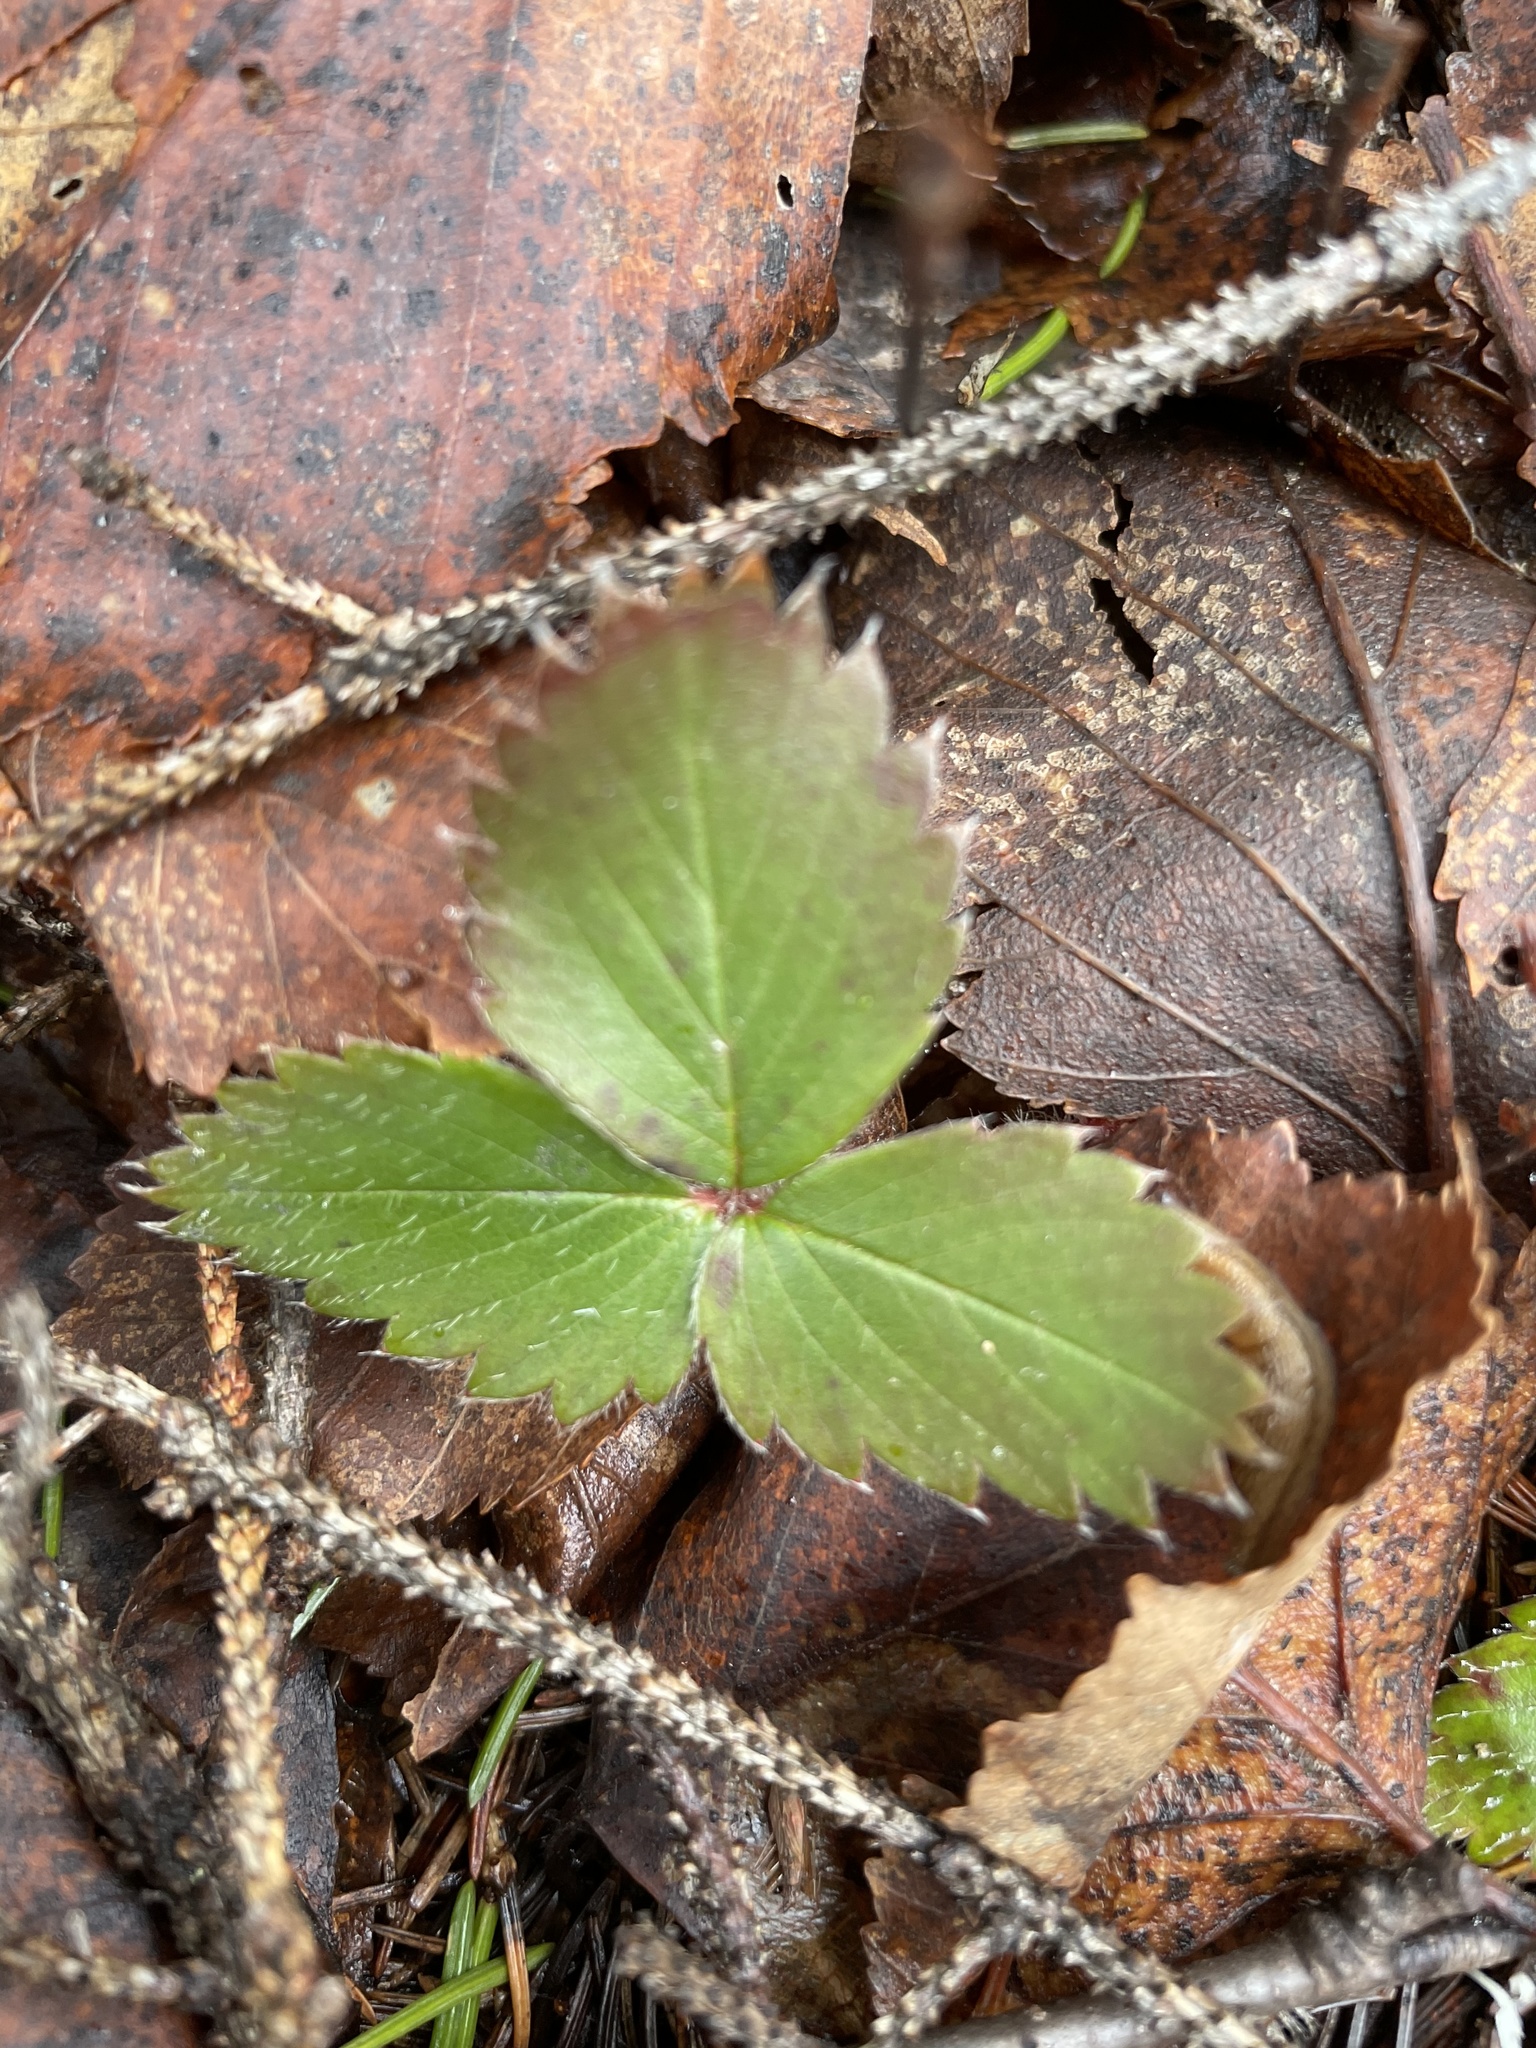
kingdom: Plantae
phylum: Tracheophyta
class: Magnoliopsida
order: Rosales
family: Rosaceae
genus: Fragaria
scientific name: Fragaria virginiana
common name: Thickleaved wild strawberry
